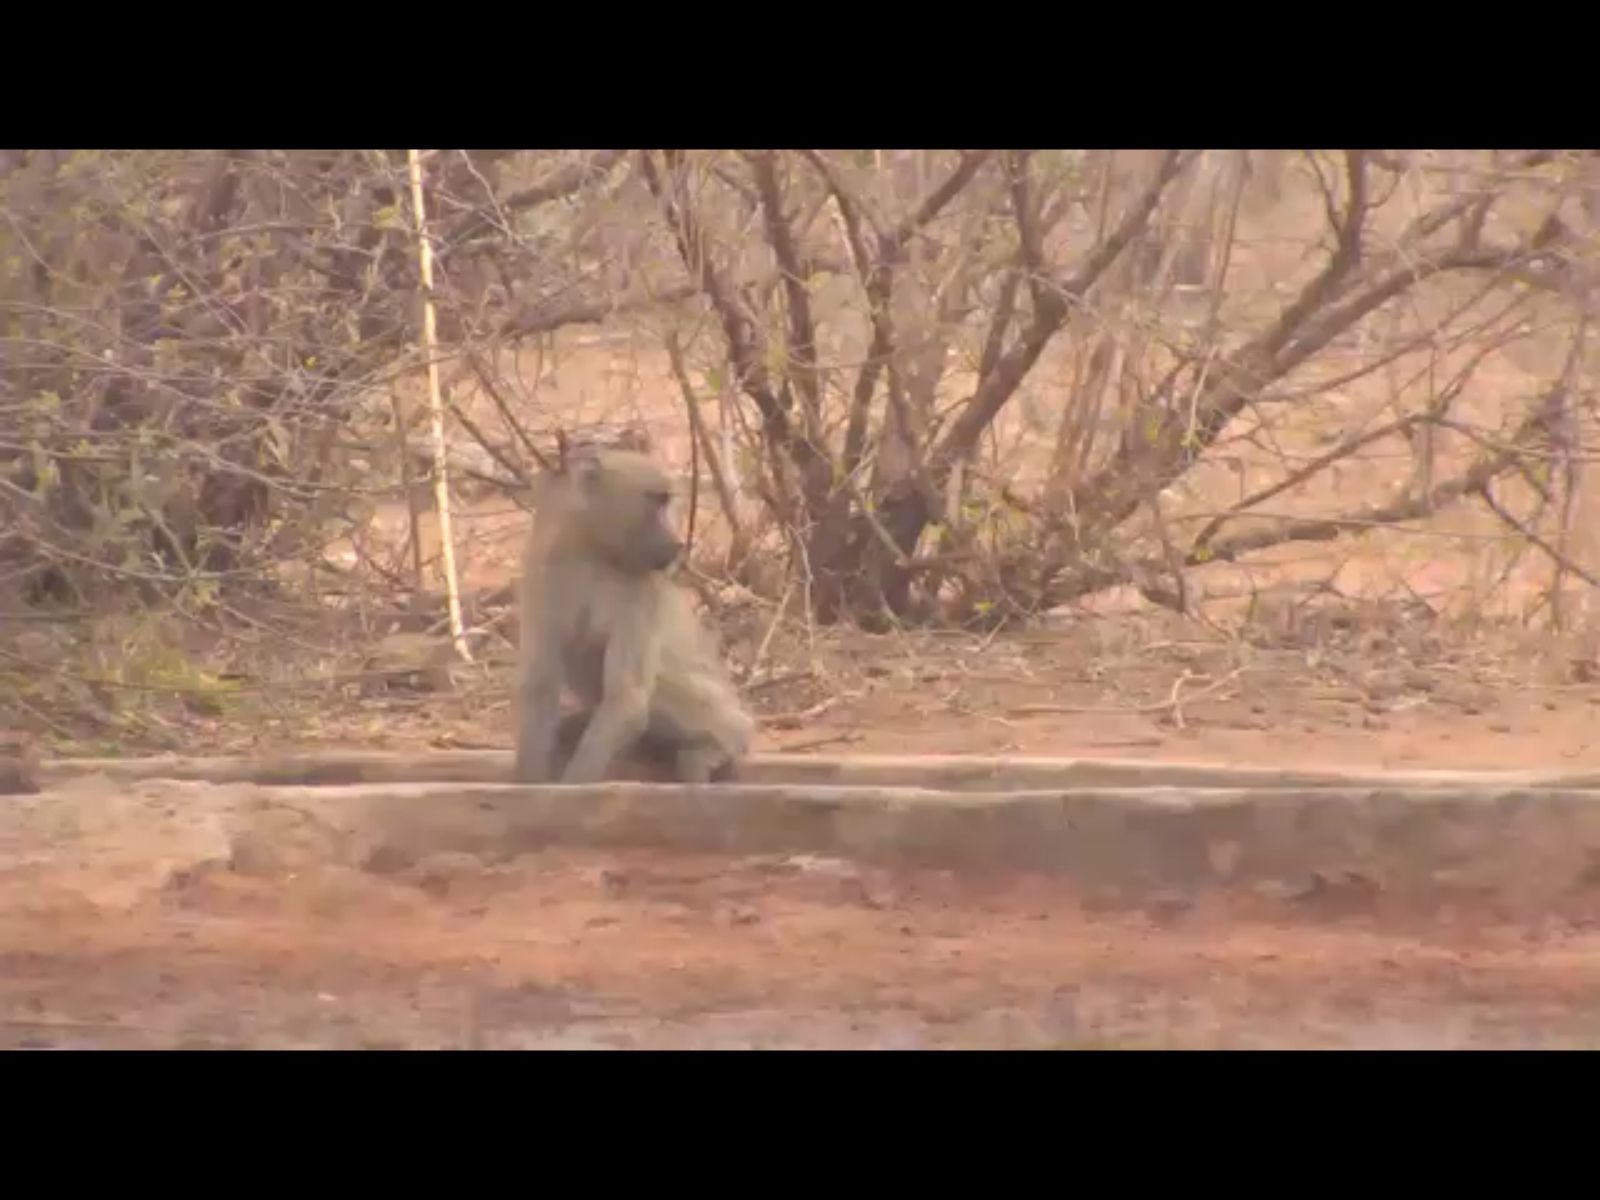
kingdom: Animalia
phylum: Chordata
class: Mammalia
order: Primates
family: Cercopithecidae
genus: Papio
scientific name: Papio ursinus
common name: Chacma baboon
